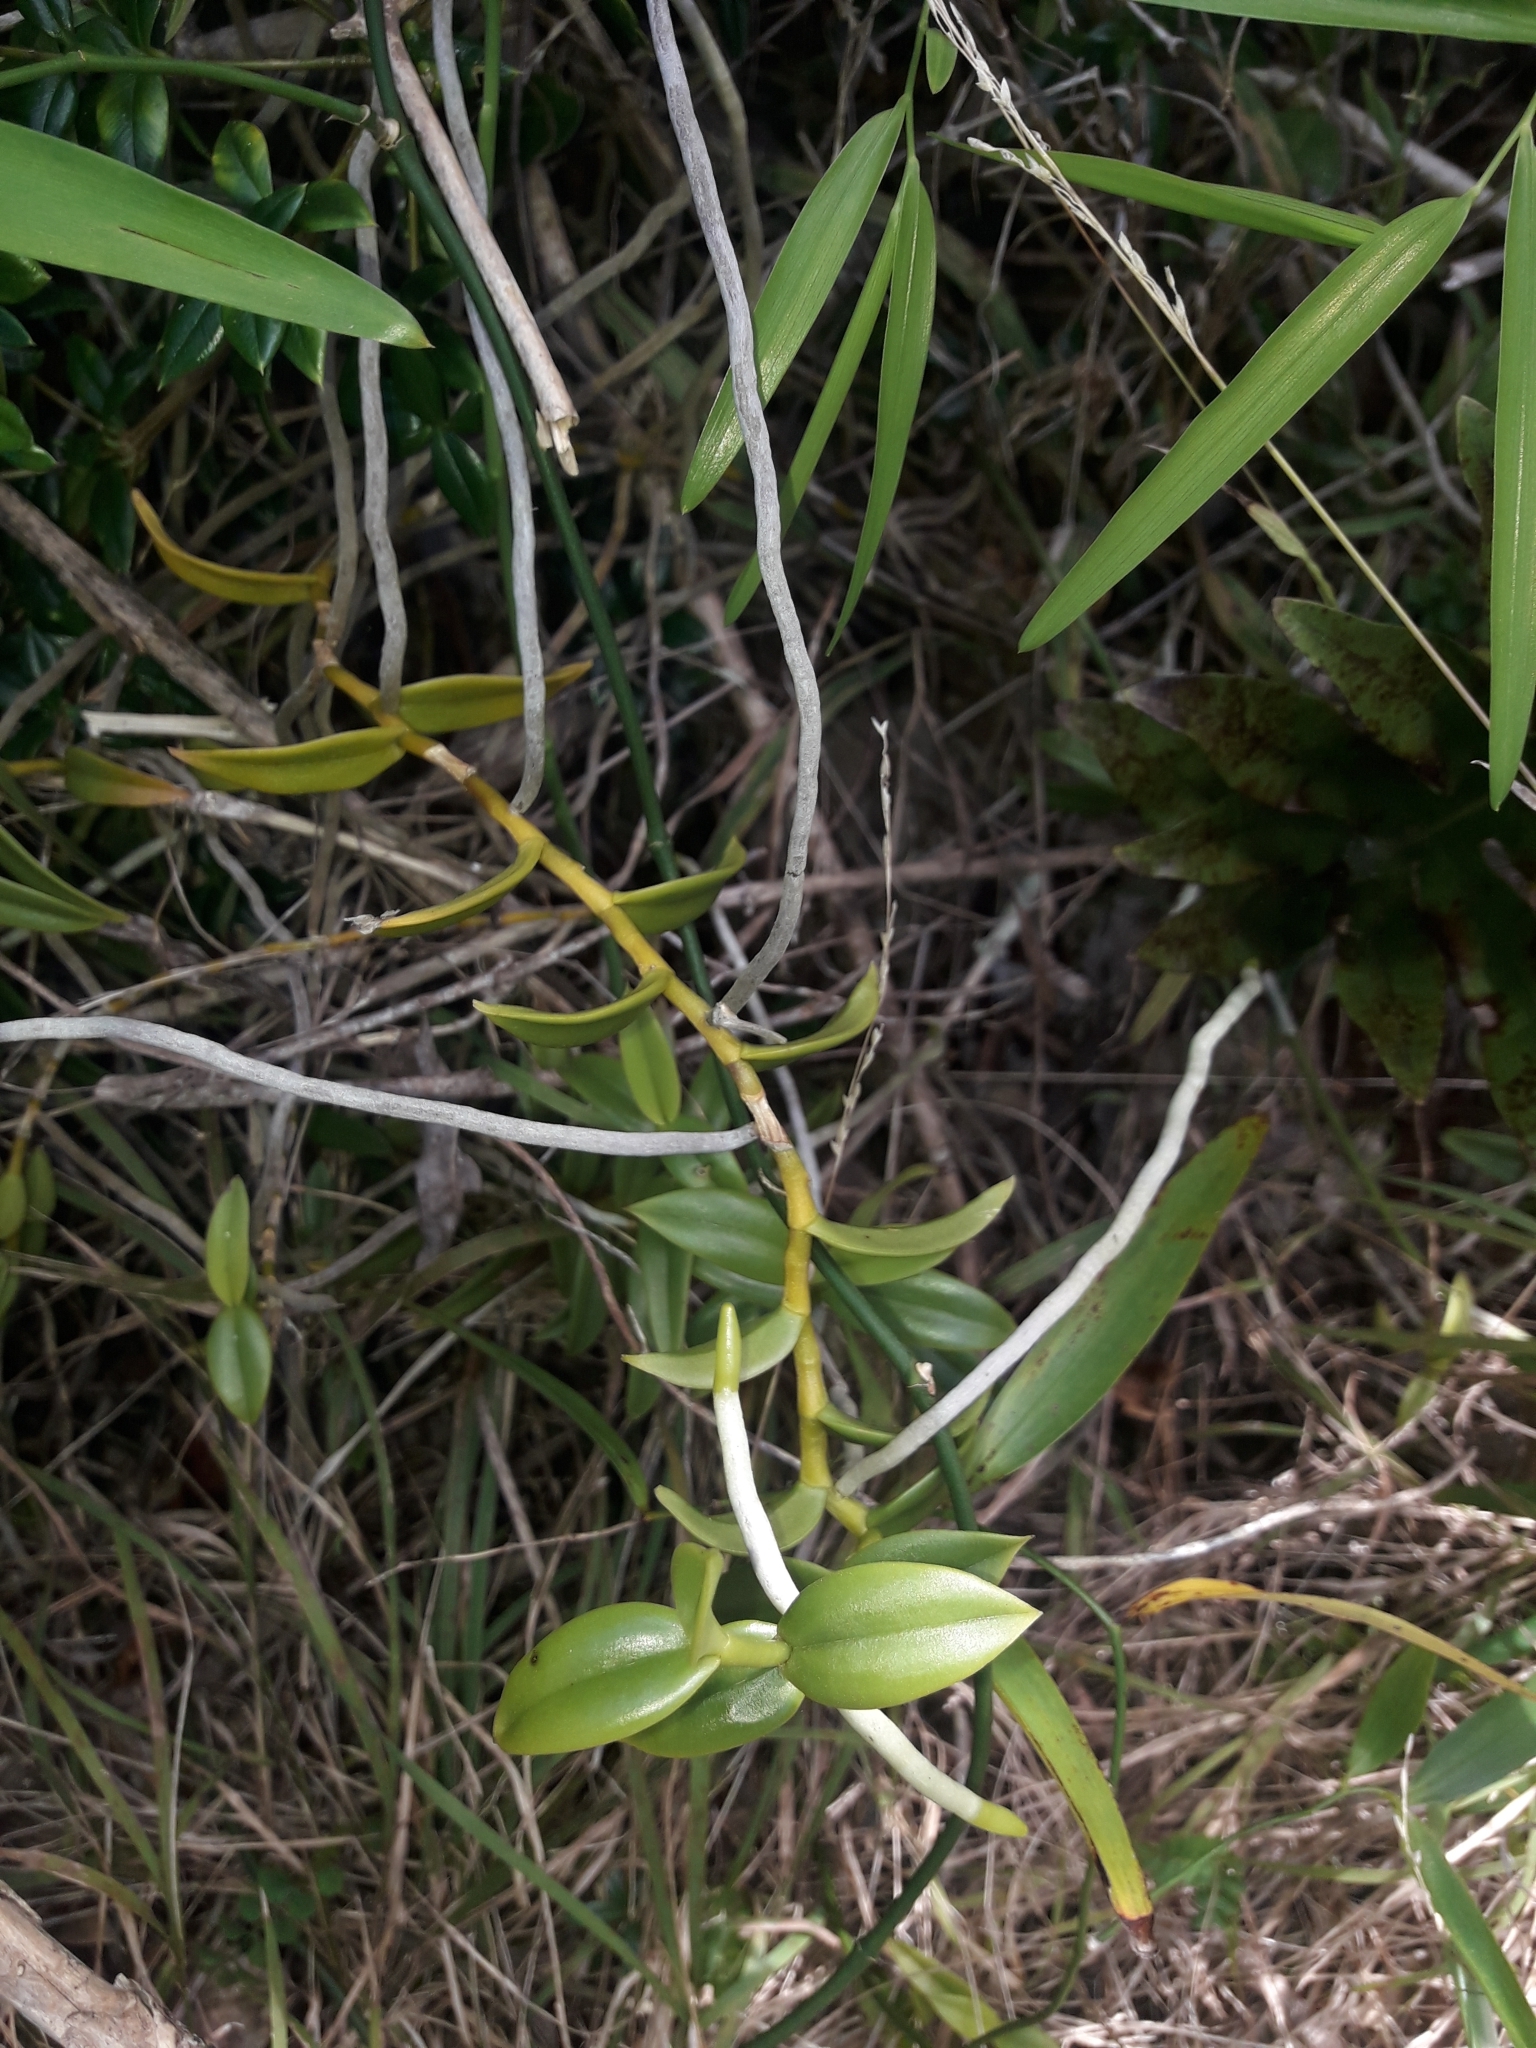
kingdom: Plantae
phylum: Tracheophyta
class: Liliopsida
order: Asparagales
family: Orchidaceae
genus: Plectorrhiza
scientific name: Plectorrhiza erecta
